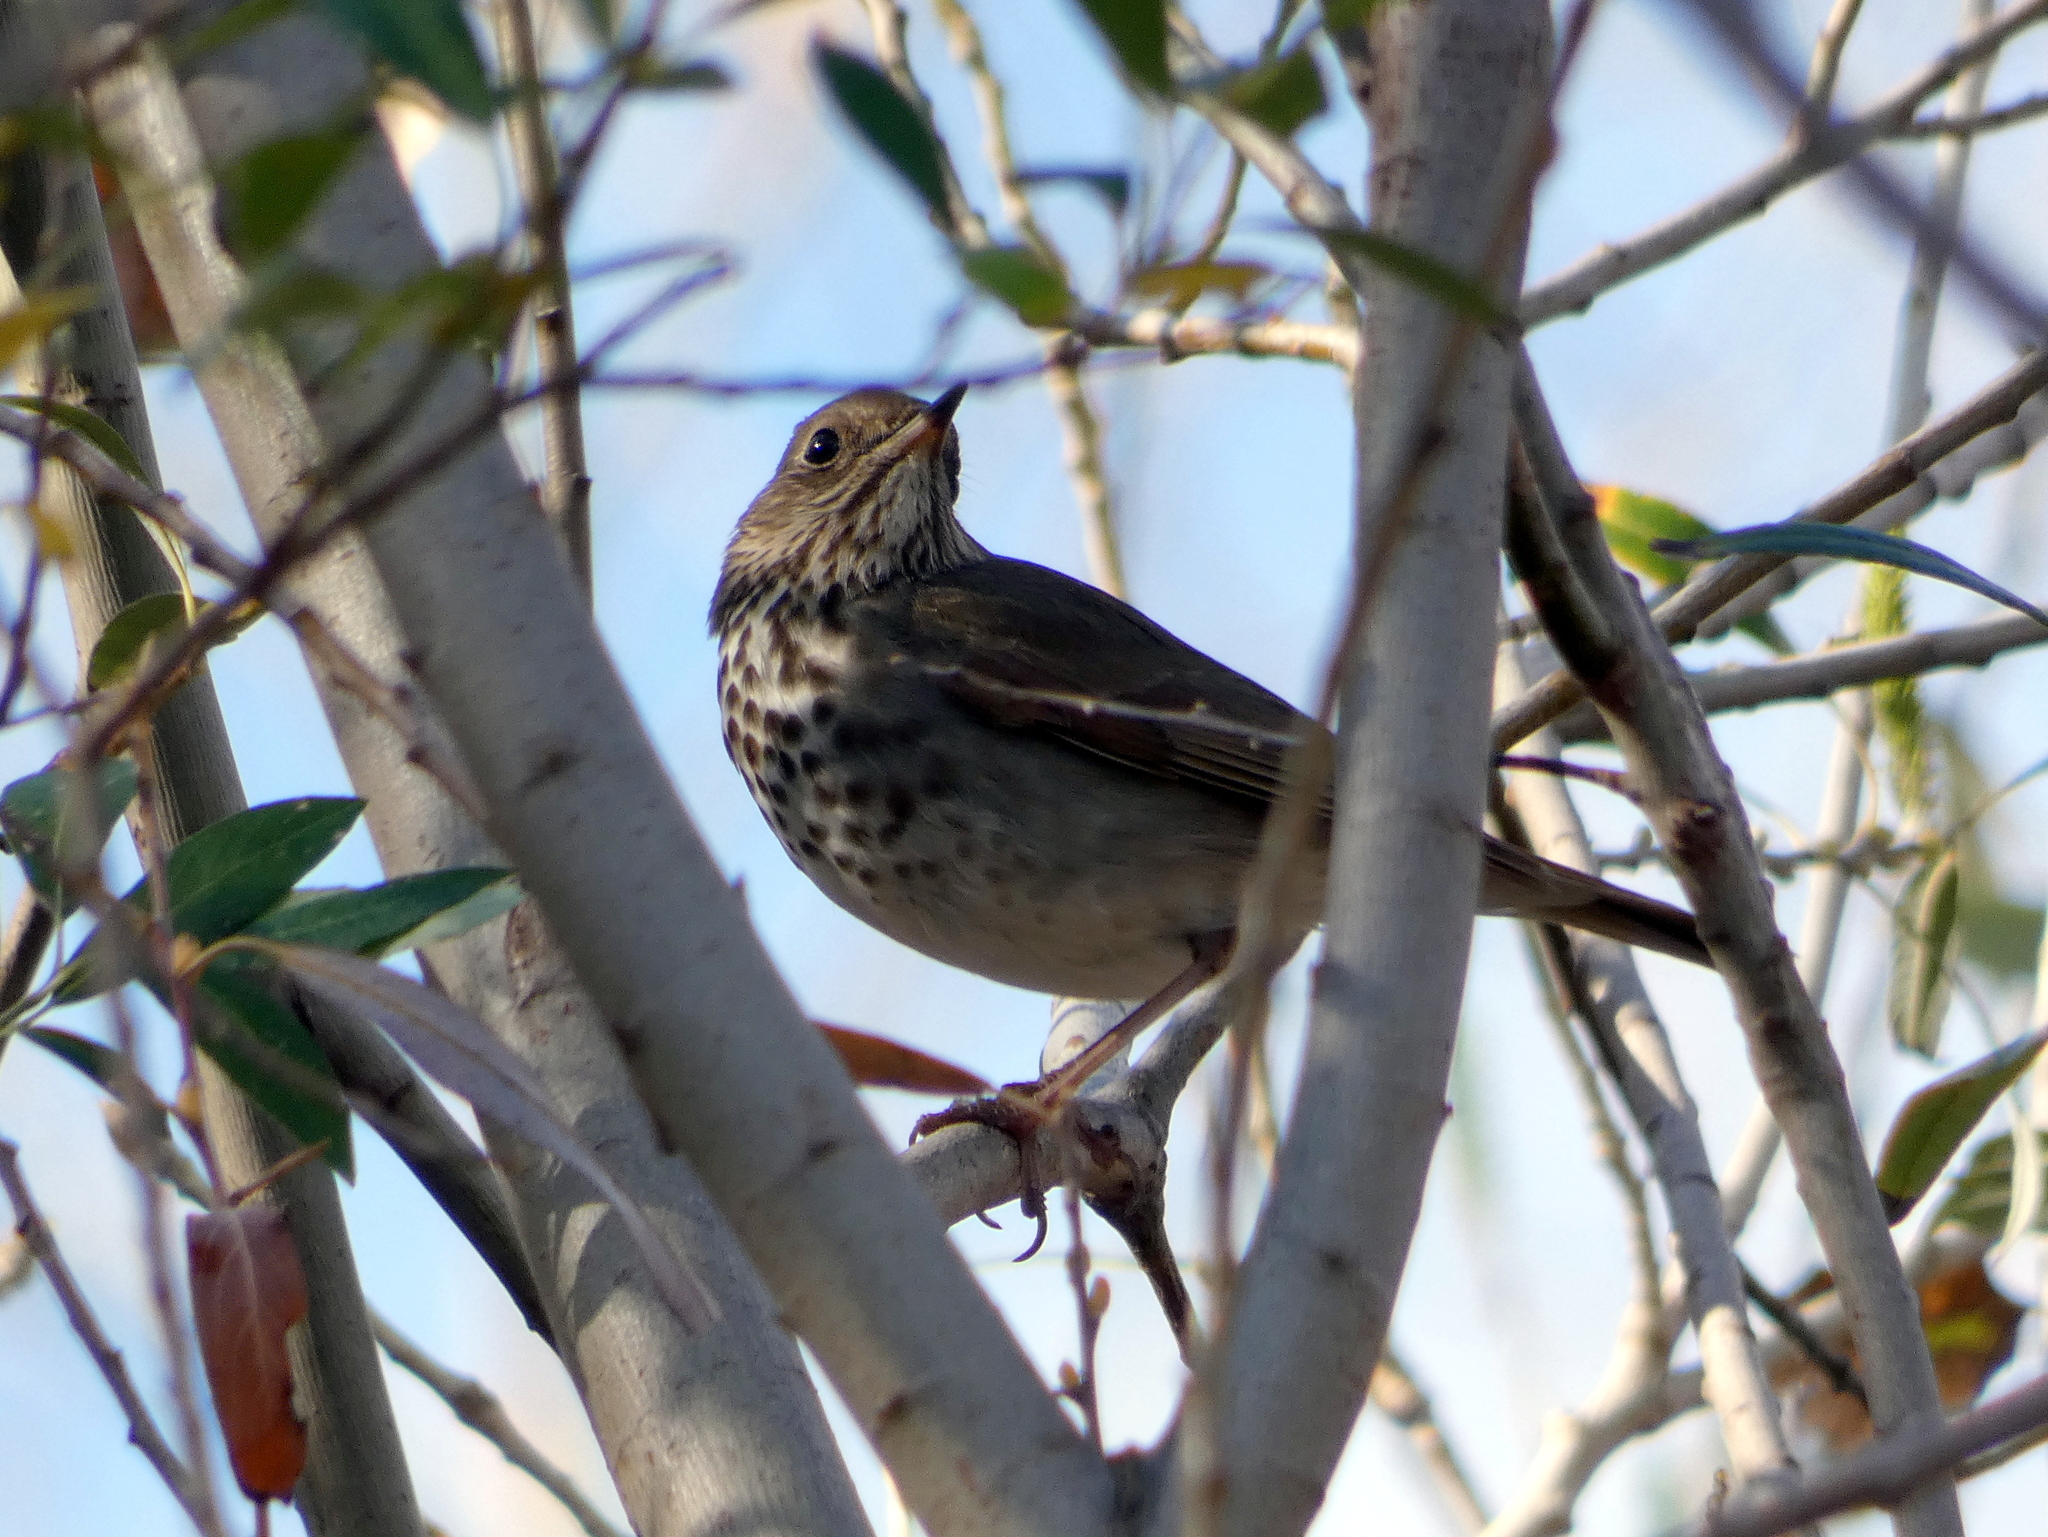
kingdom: Animalia
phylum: Chordata
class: Aves
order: Passeriformes
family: Turdidae
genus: Catharus
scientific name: Catharus guttatus
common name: Hermit thrush
